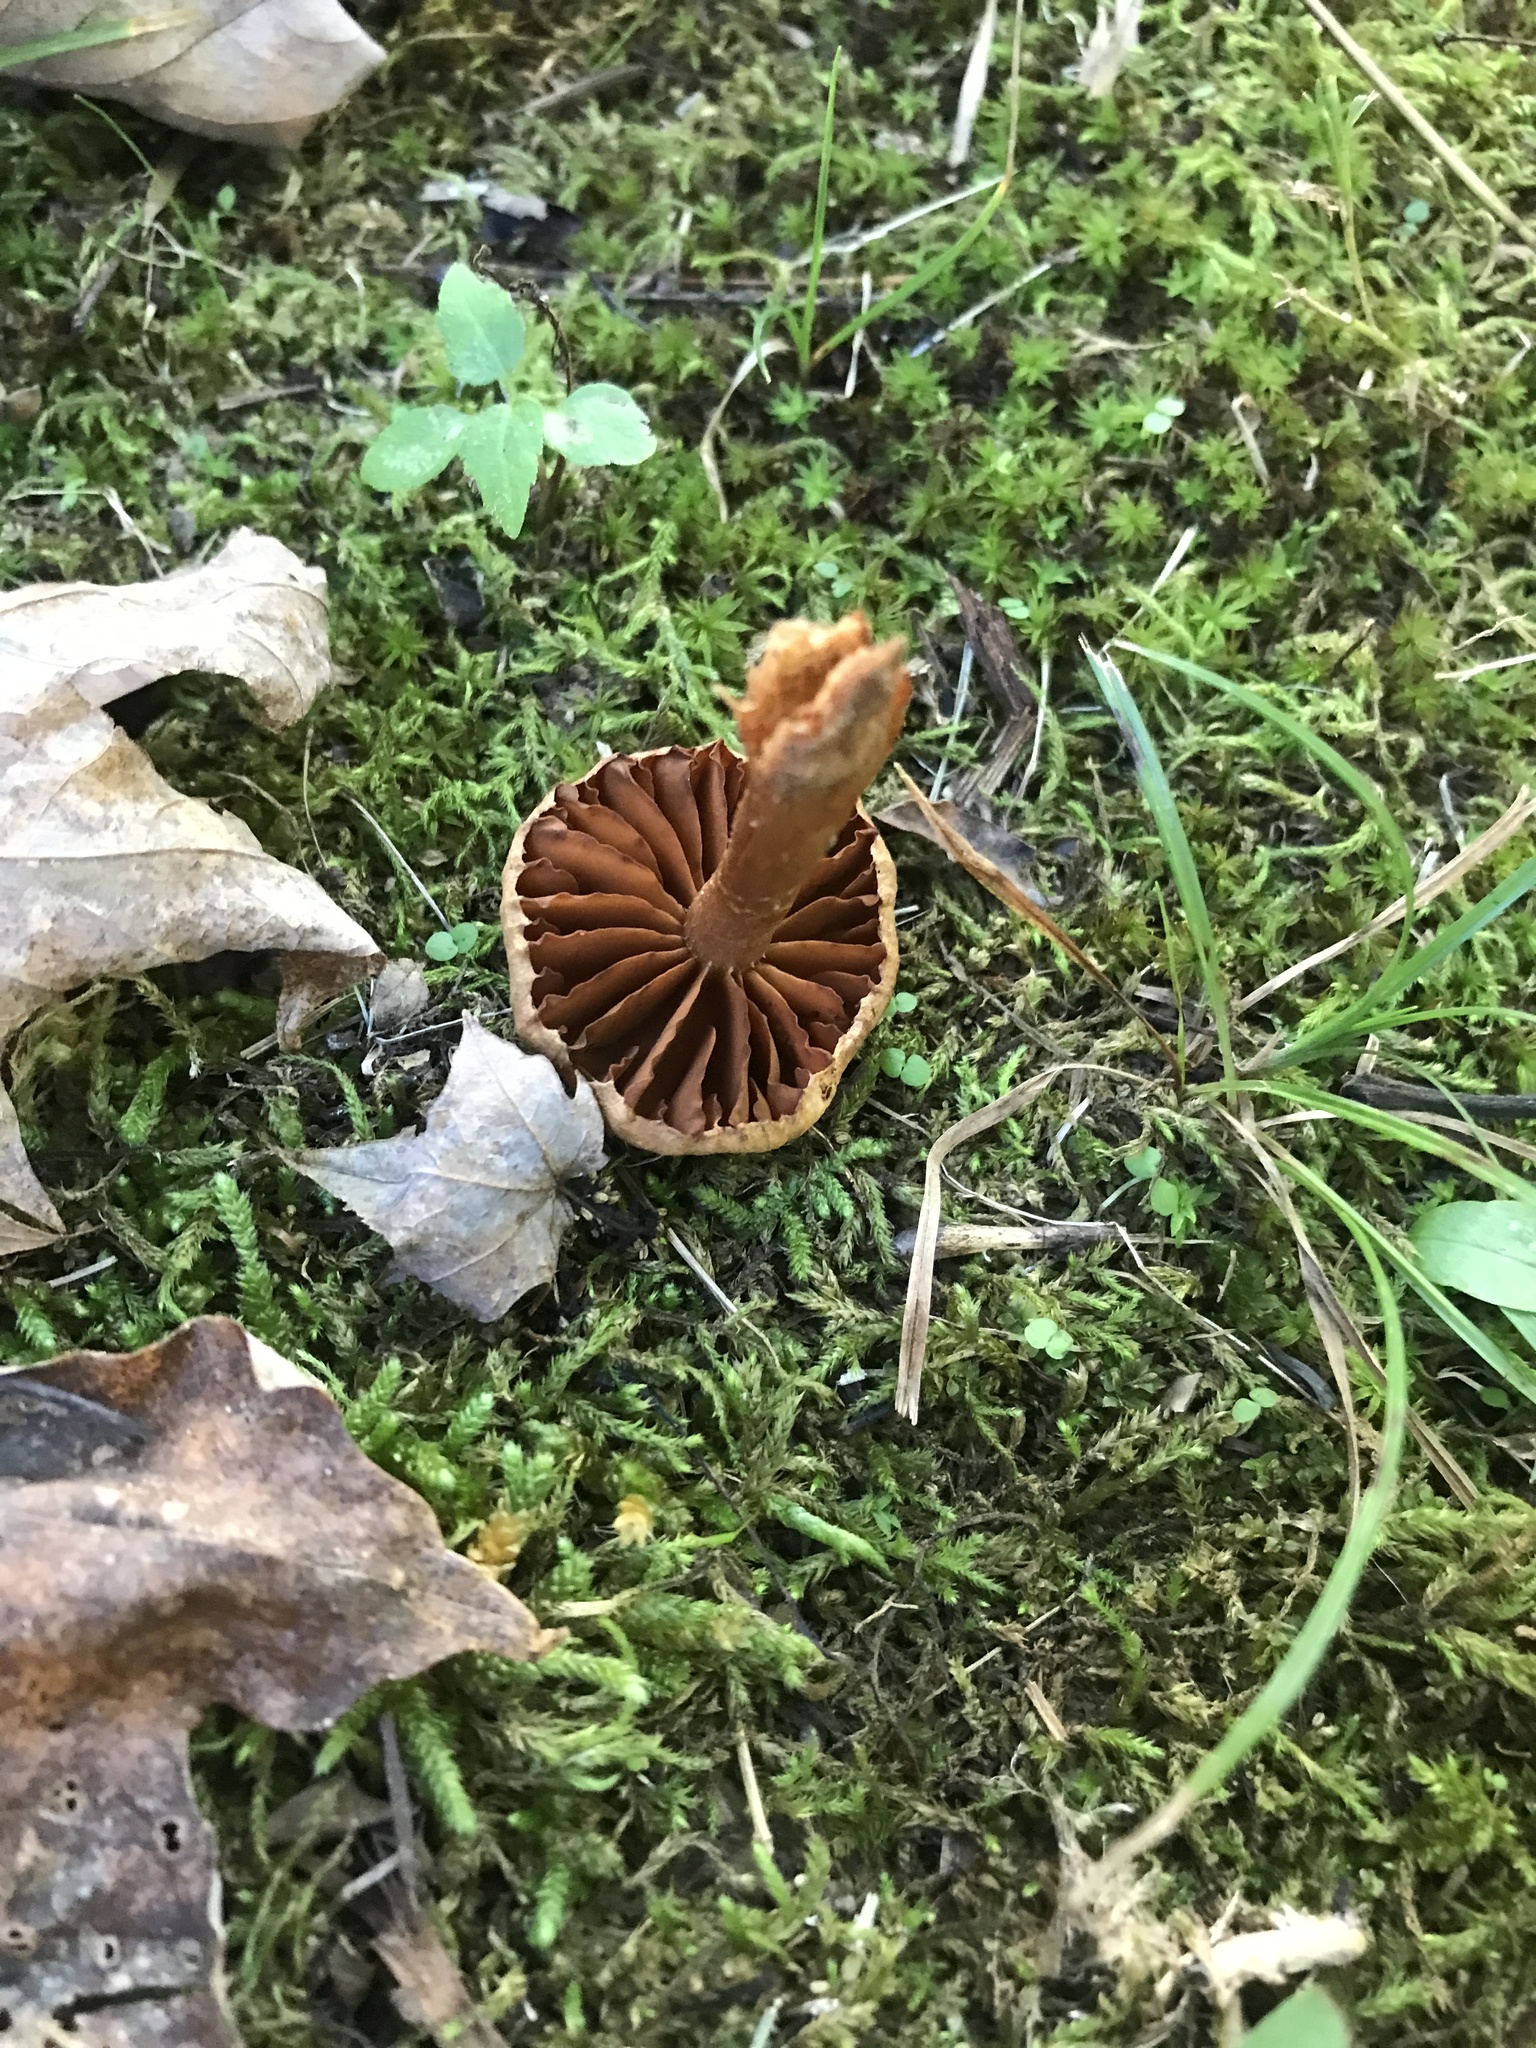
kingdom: Fungi
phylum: Basidiomycota
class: Agaricomycetes
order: Agaricales
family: Cortinariaceae
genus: Cortinarius
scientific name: Cortinarius
